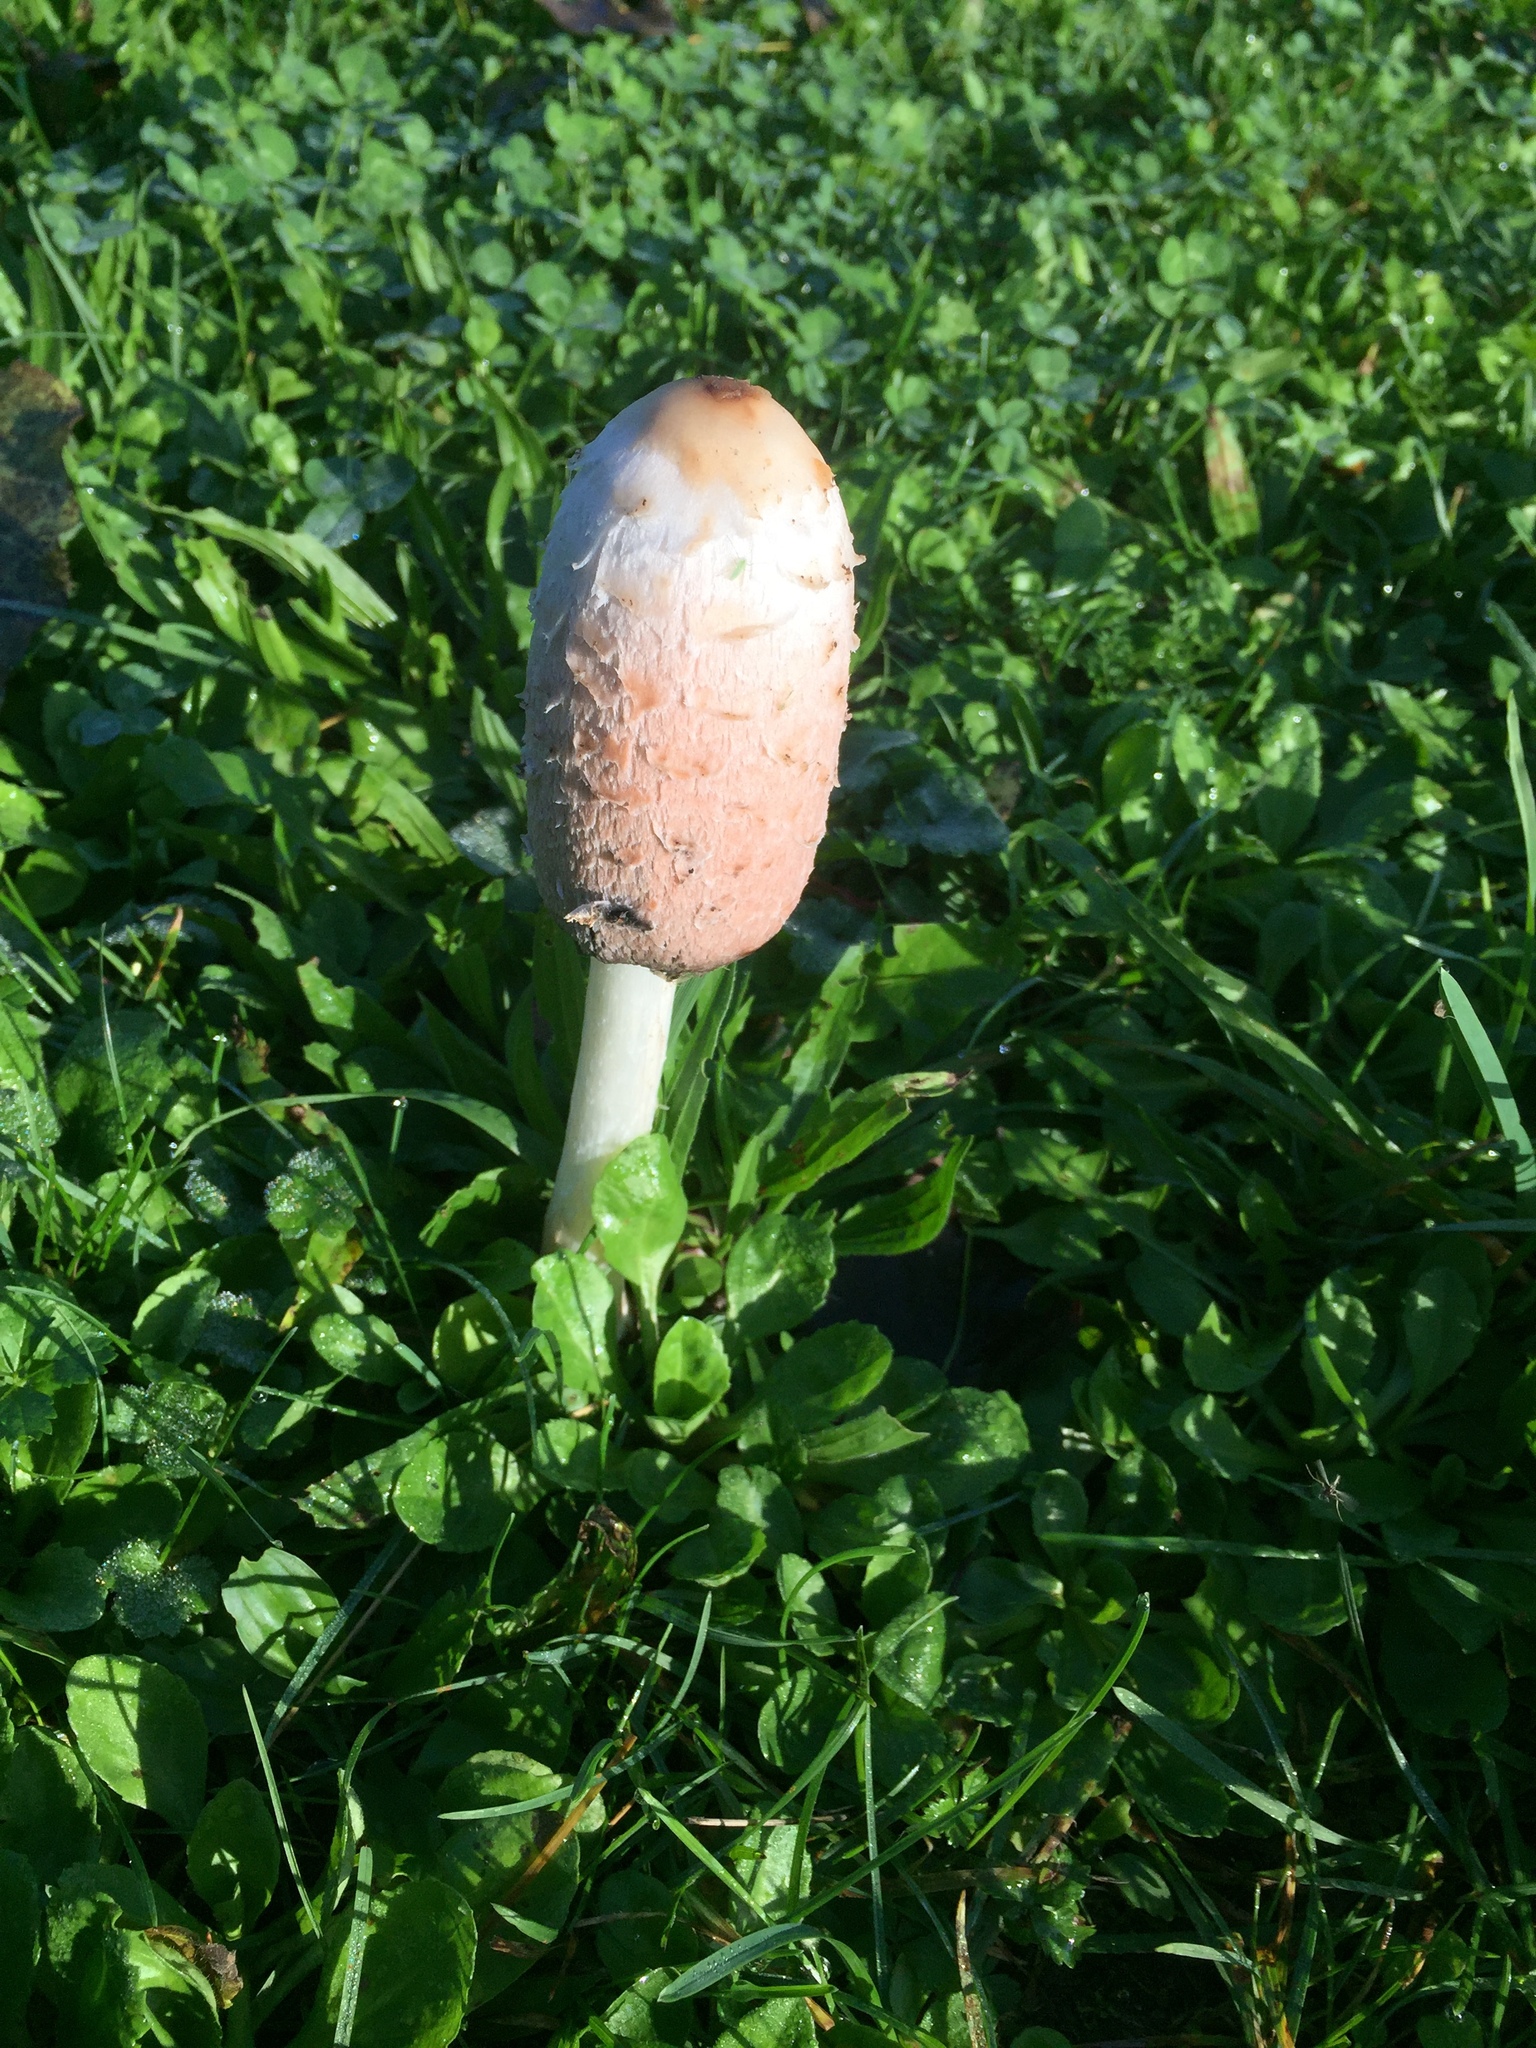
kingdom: Fungi
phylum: Basidiomycota
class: Agaricomycetes
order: Agaricales
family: Agaricaceae
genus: Coprinus
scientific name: Coprinus comatus
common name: Lawyer's wig
